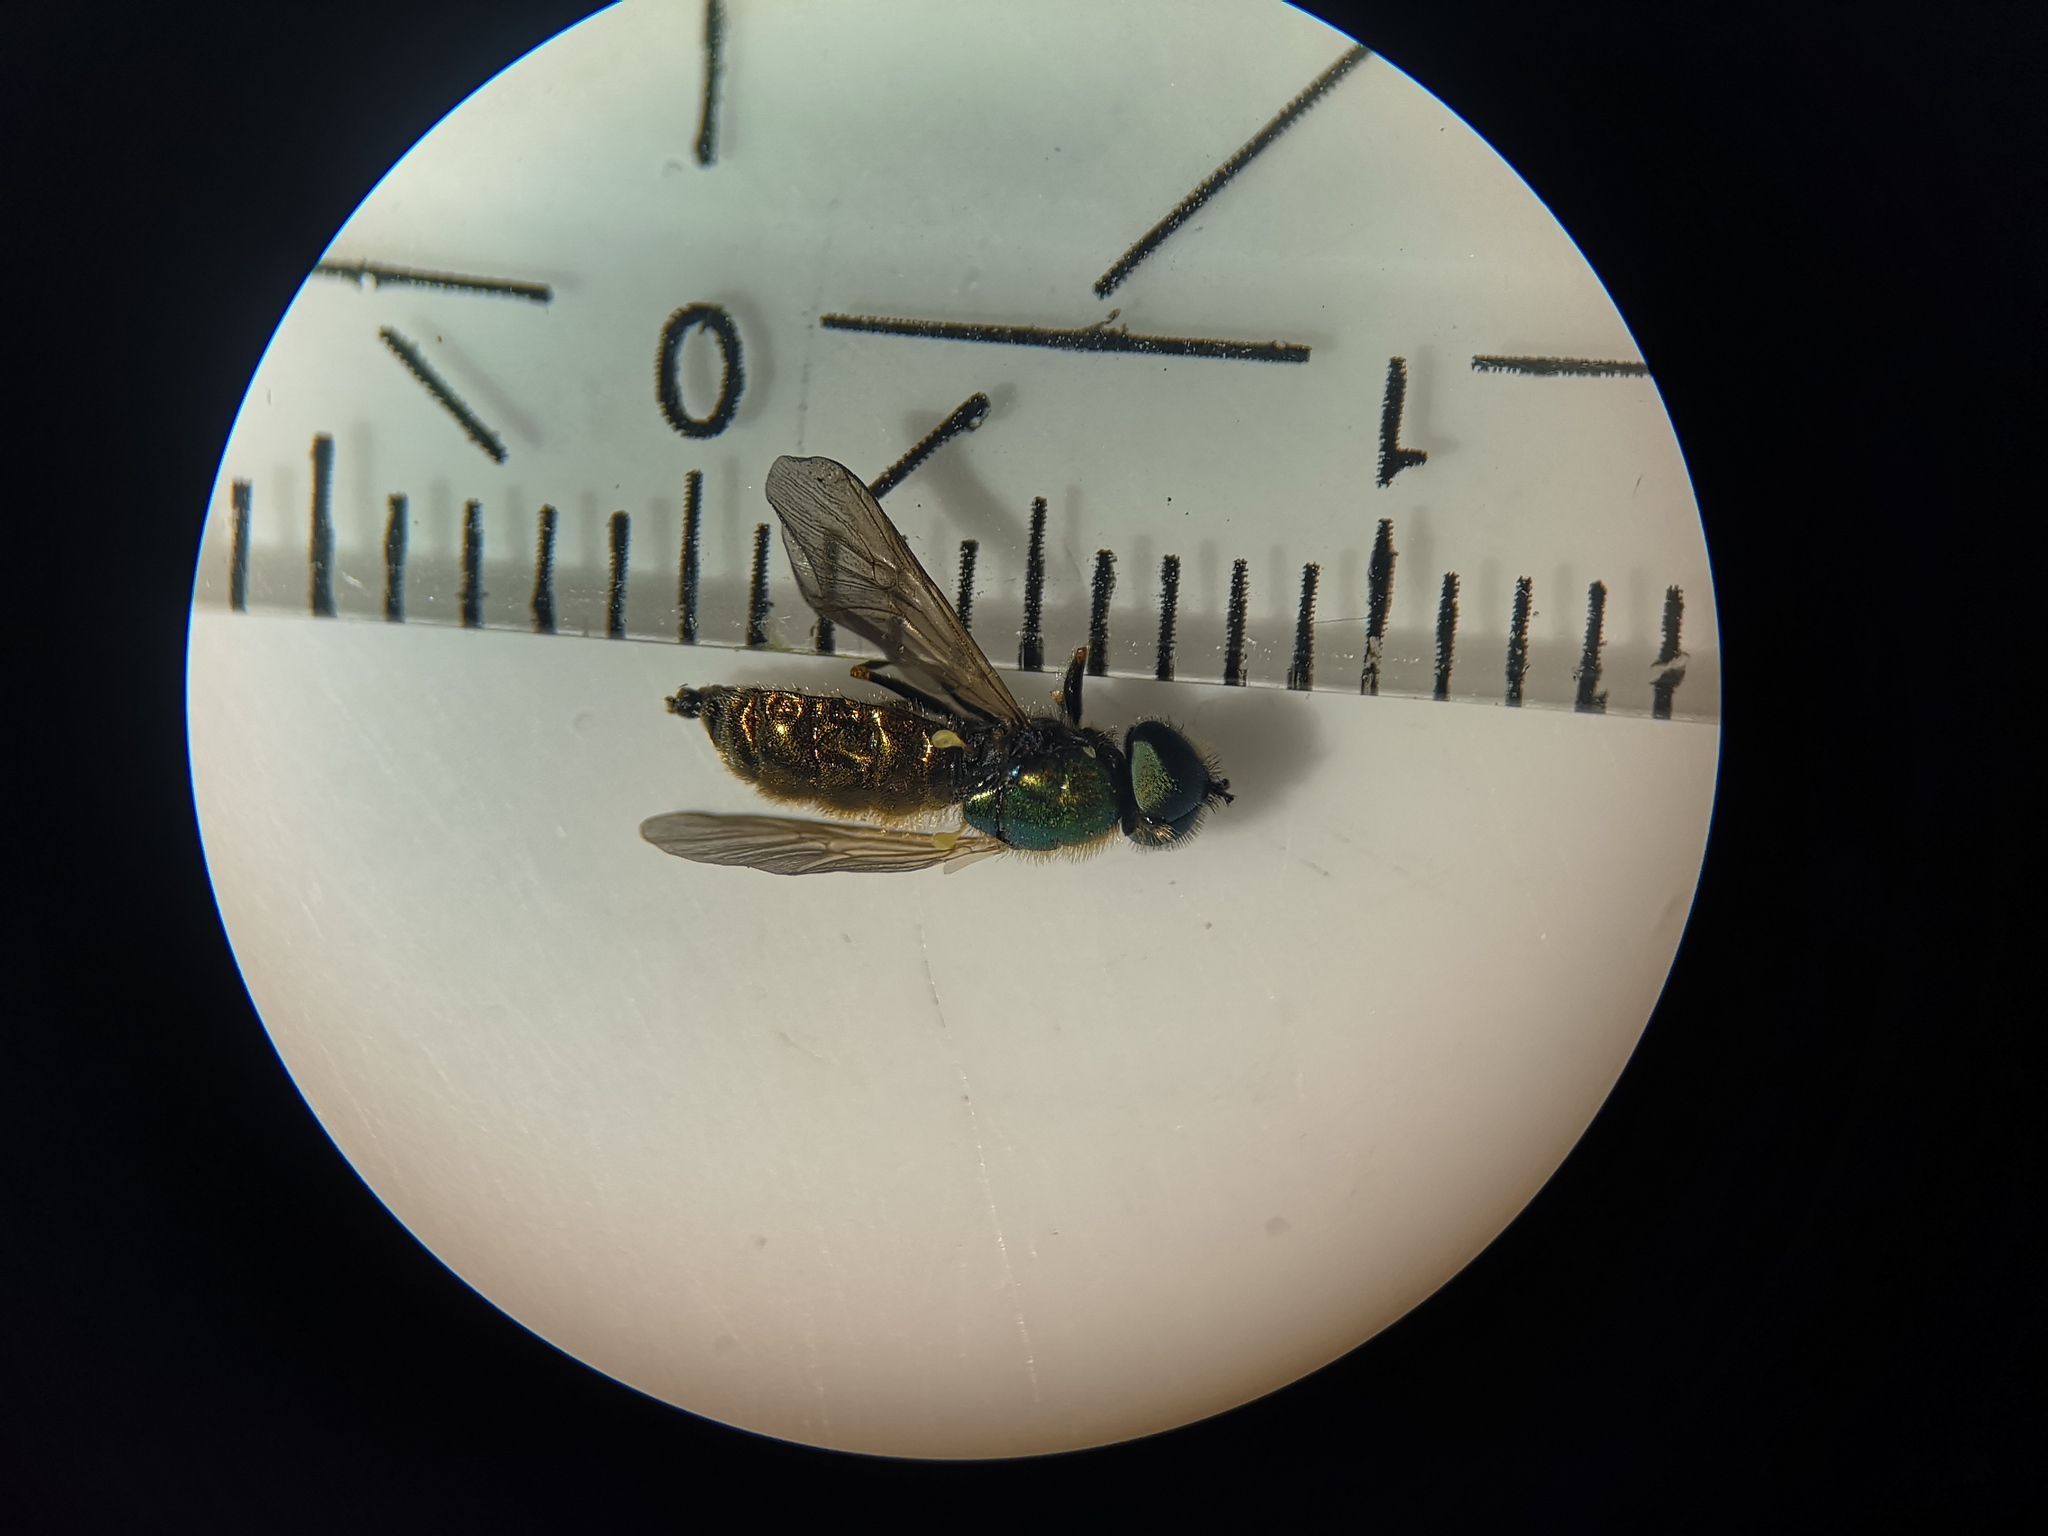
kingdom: Animalia
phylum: Arthropoda
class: Insecta
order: Diptera
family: Stratiomyidae
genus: Chloromyia
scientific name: Chloromyia formosa
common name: Soldier fly
